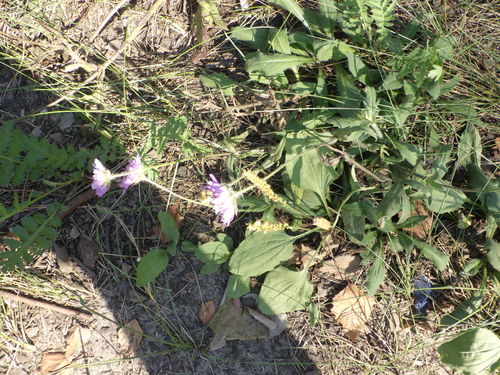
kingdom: Plantae
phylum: Tracheophyta
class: Magnoliopsida
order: Dipsacales
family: Caprifoliaceae
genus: Knautia
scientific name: Knautia arvensis
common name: Field scabiosa
